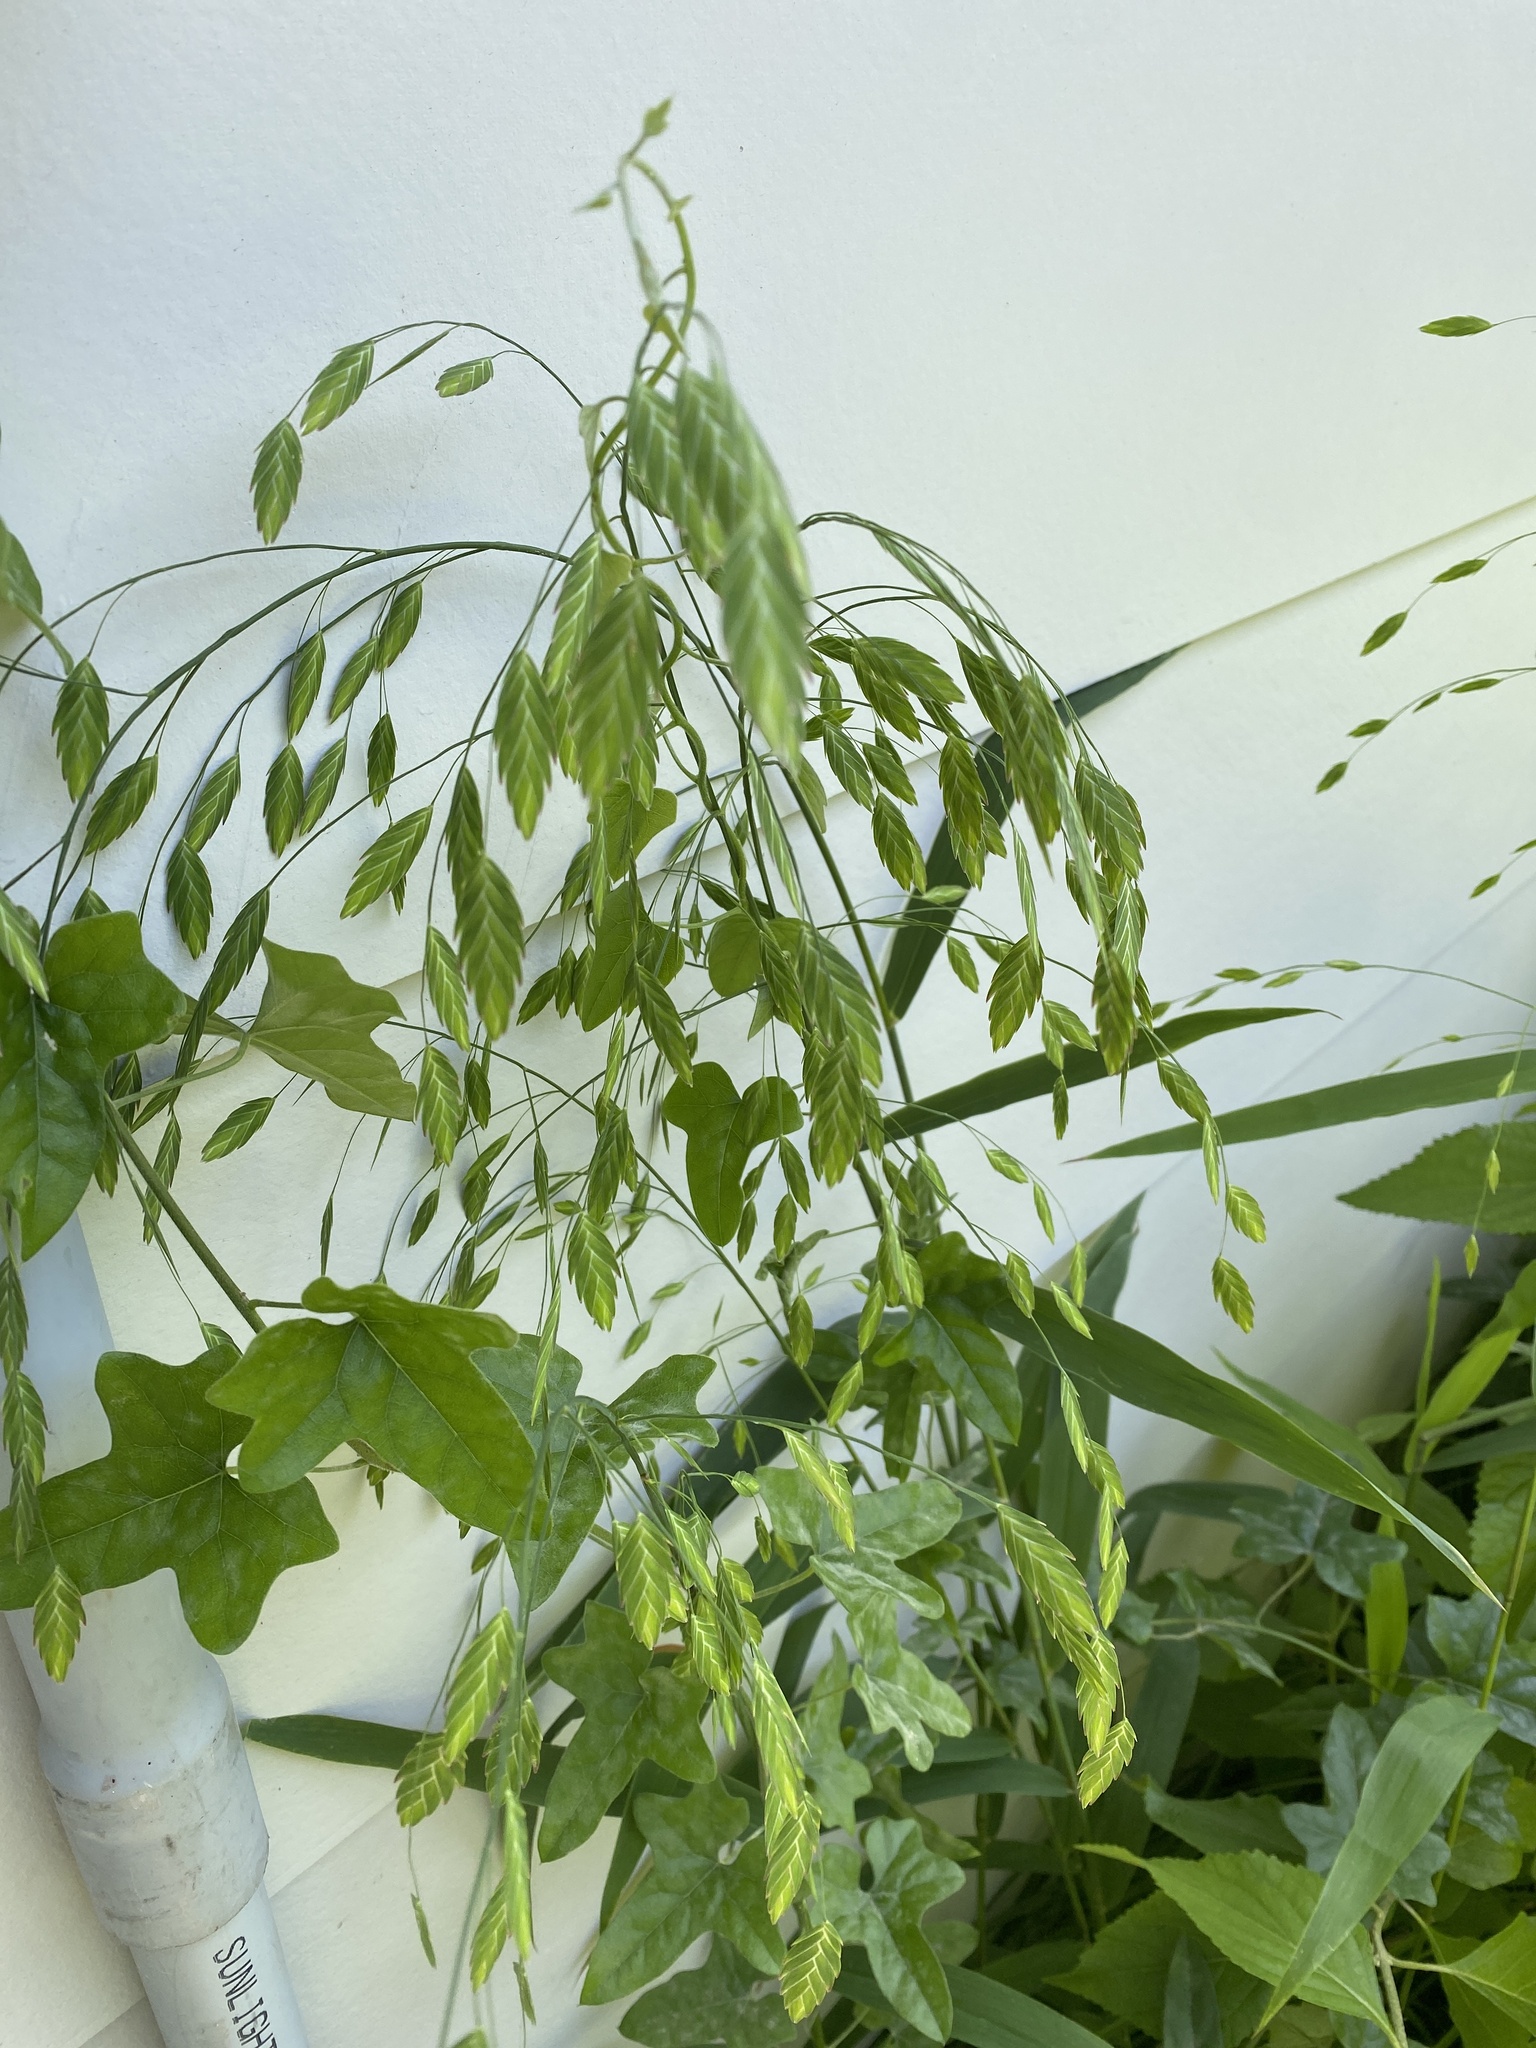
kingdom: Plantae
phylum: Tracheophyta
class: Liliopsida
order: Poales
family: Poaceae
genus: Chasmanthium
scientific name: Chasmanthium latifolium
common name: Broad-leaved chasmanthium
